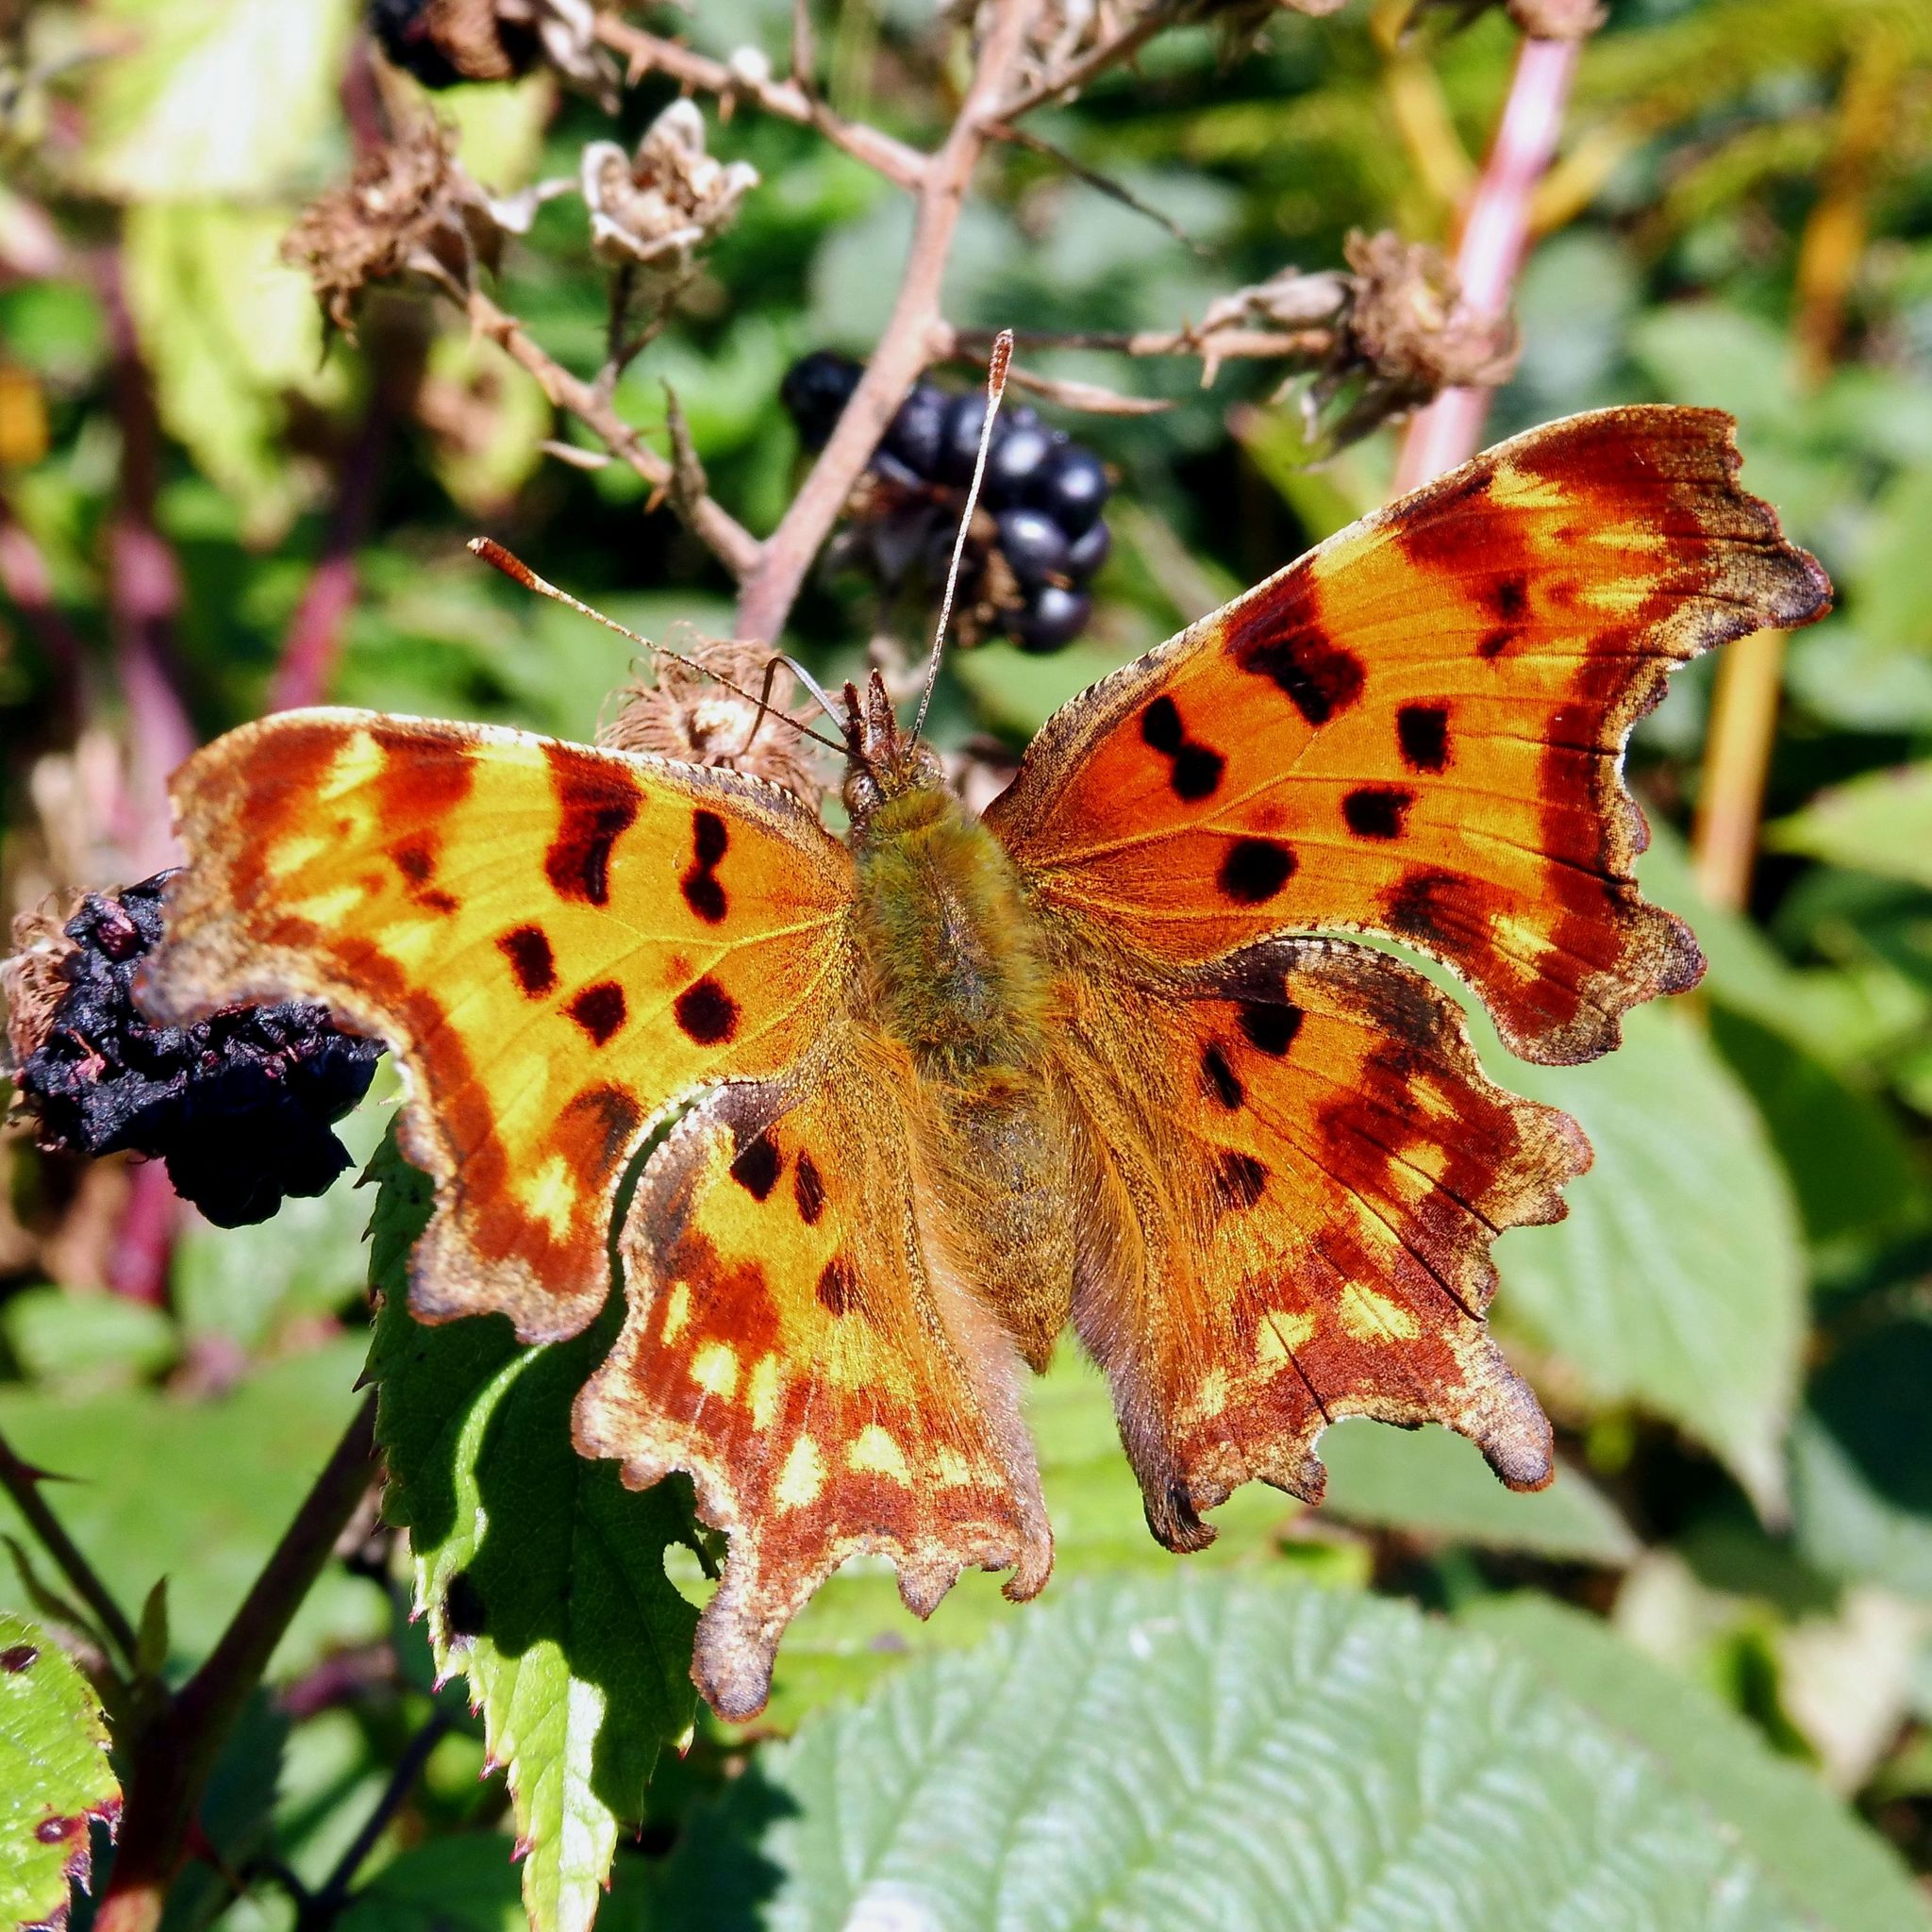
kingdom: Animalia
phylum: Arthropoda
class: Insecta
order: Lepidoptera
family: Nymphalidae
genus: Polygonia
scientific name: Polygonia c-album
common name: Comma
